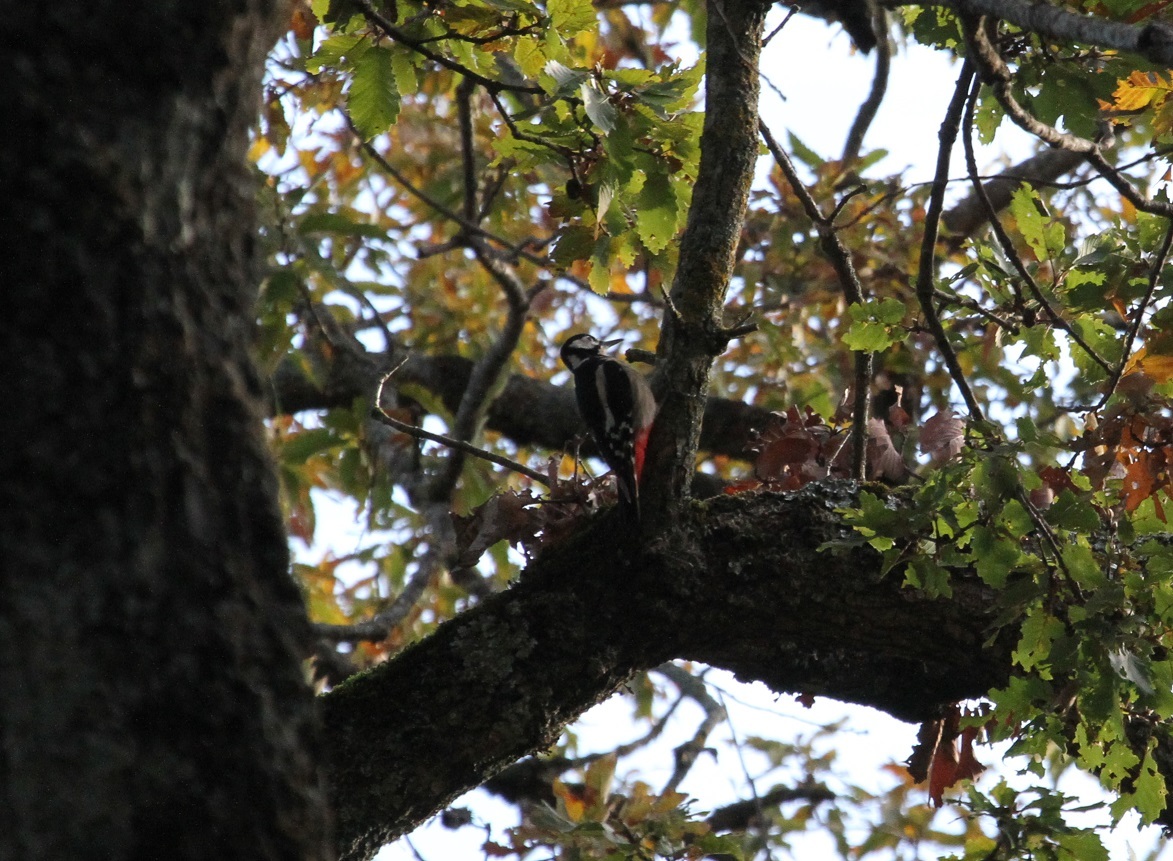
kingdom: Animalia
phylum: Chordata
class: Aves
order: Piciformes
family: Picidae
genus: Dendrocopos
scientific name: Dendrocopos major
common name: Great spotted woodpecker
